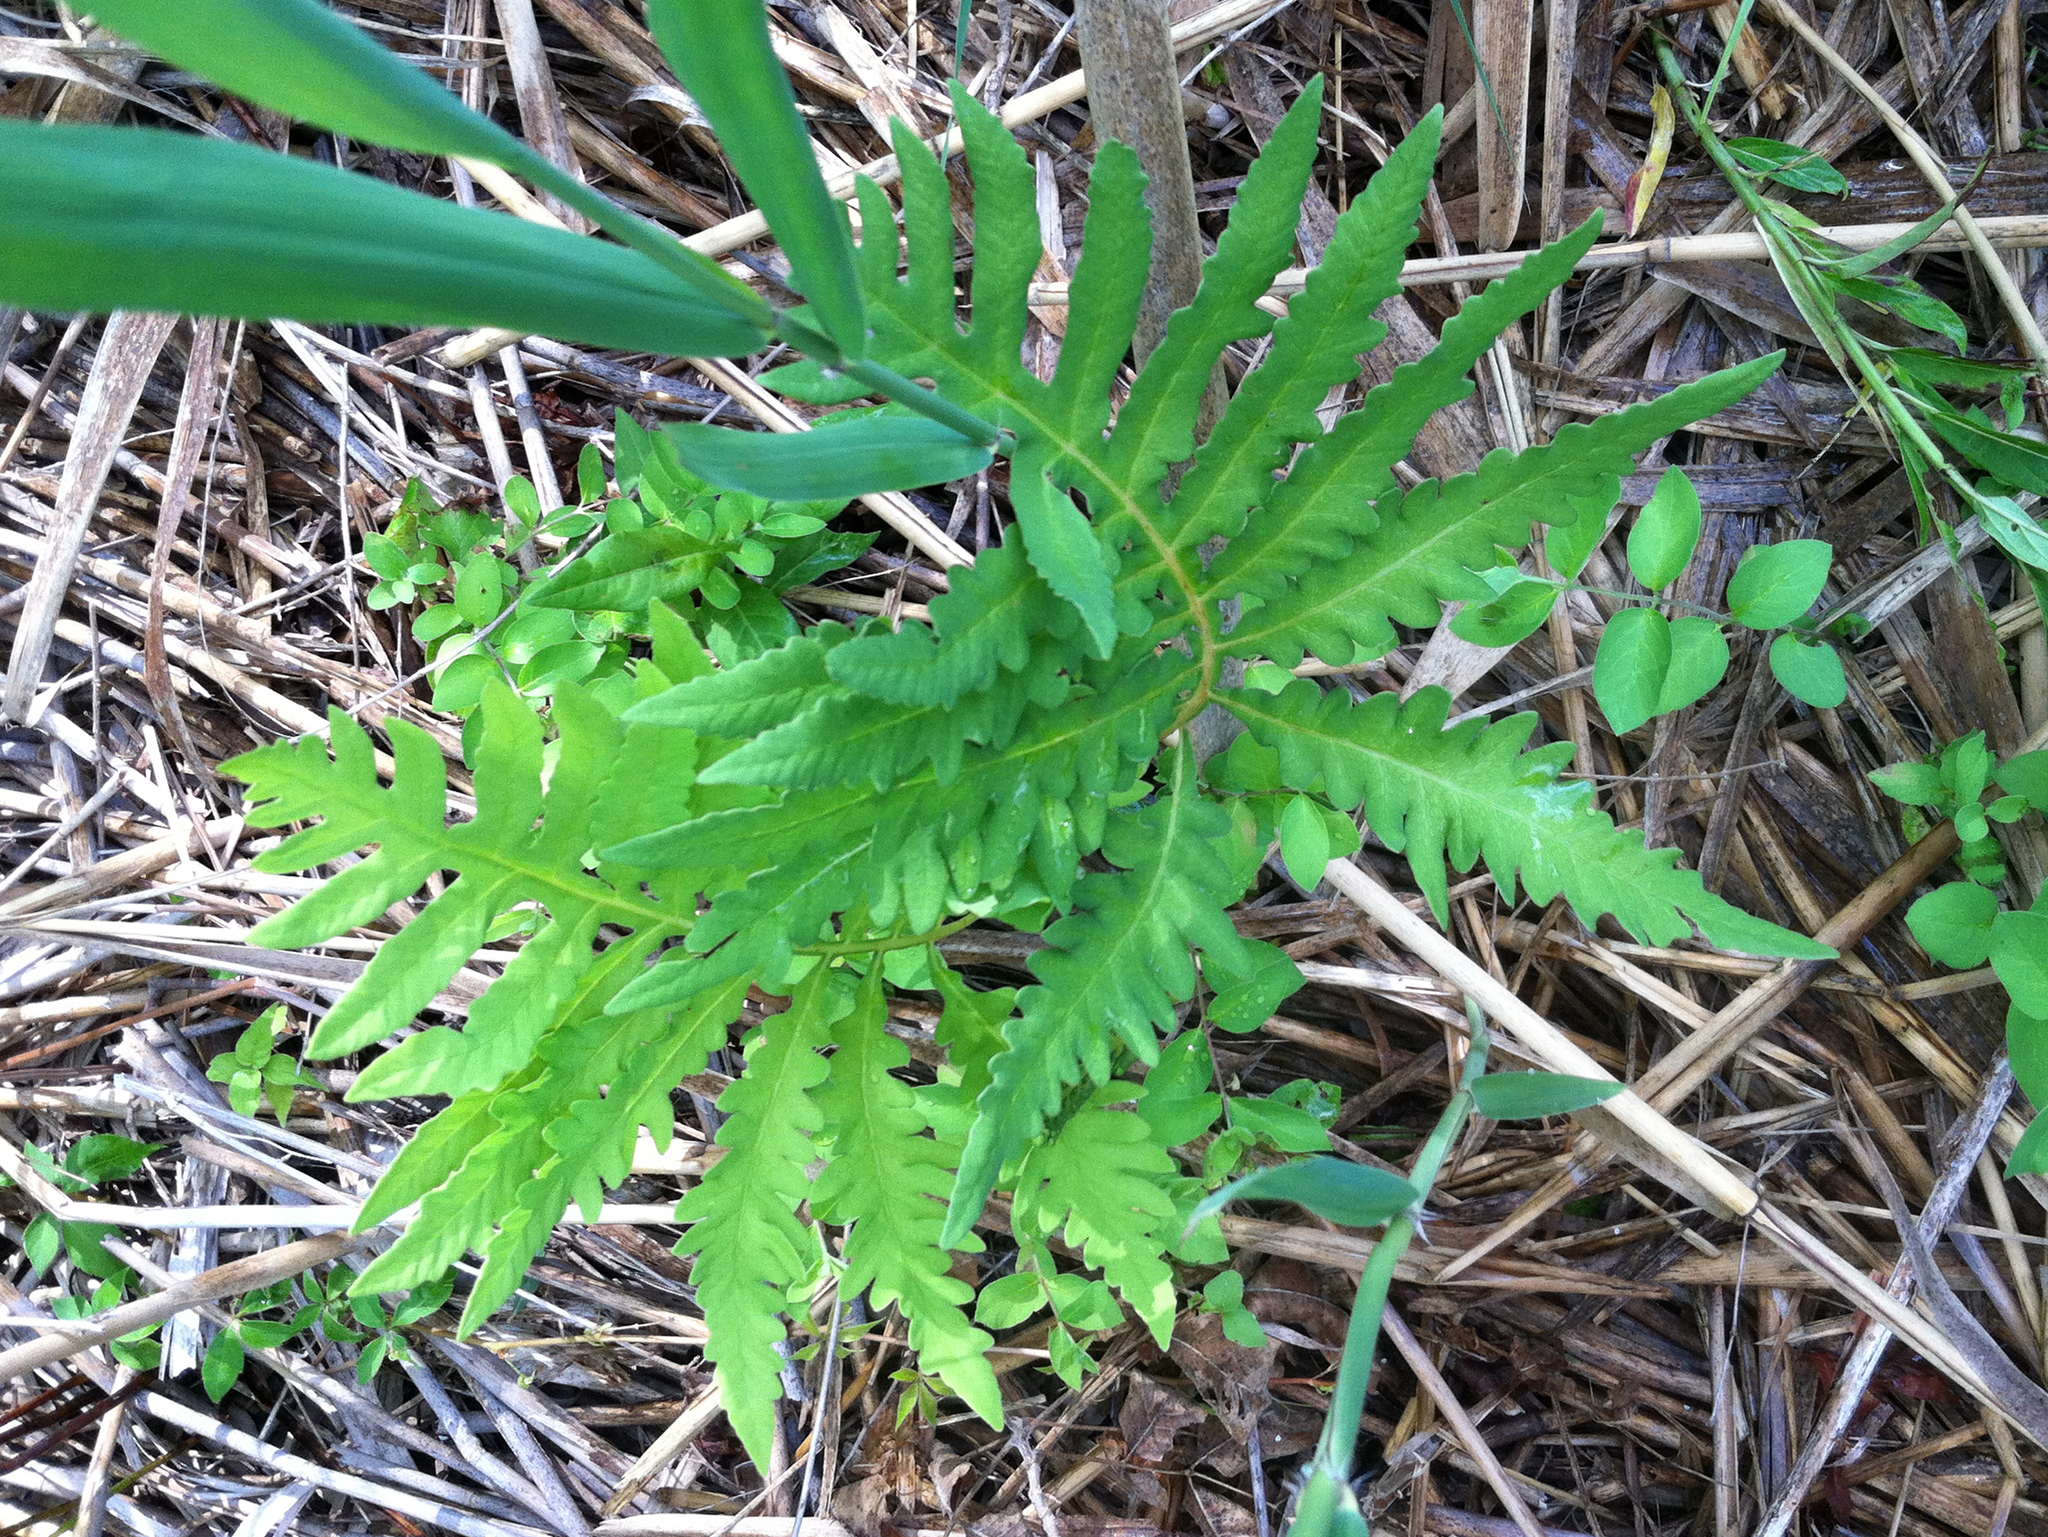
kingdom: Plantae
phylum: Tracheophyta
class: Polypodiopsida
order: Polypodiales
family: Onocleaceae
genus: Onoclea
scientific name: Onoclea sensibilis
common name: Sensitive fern
